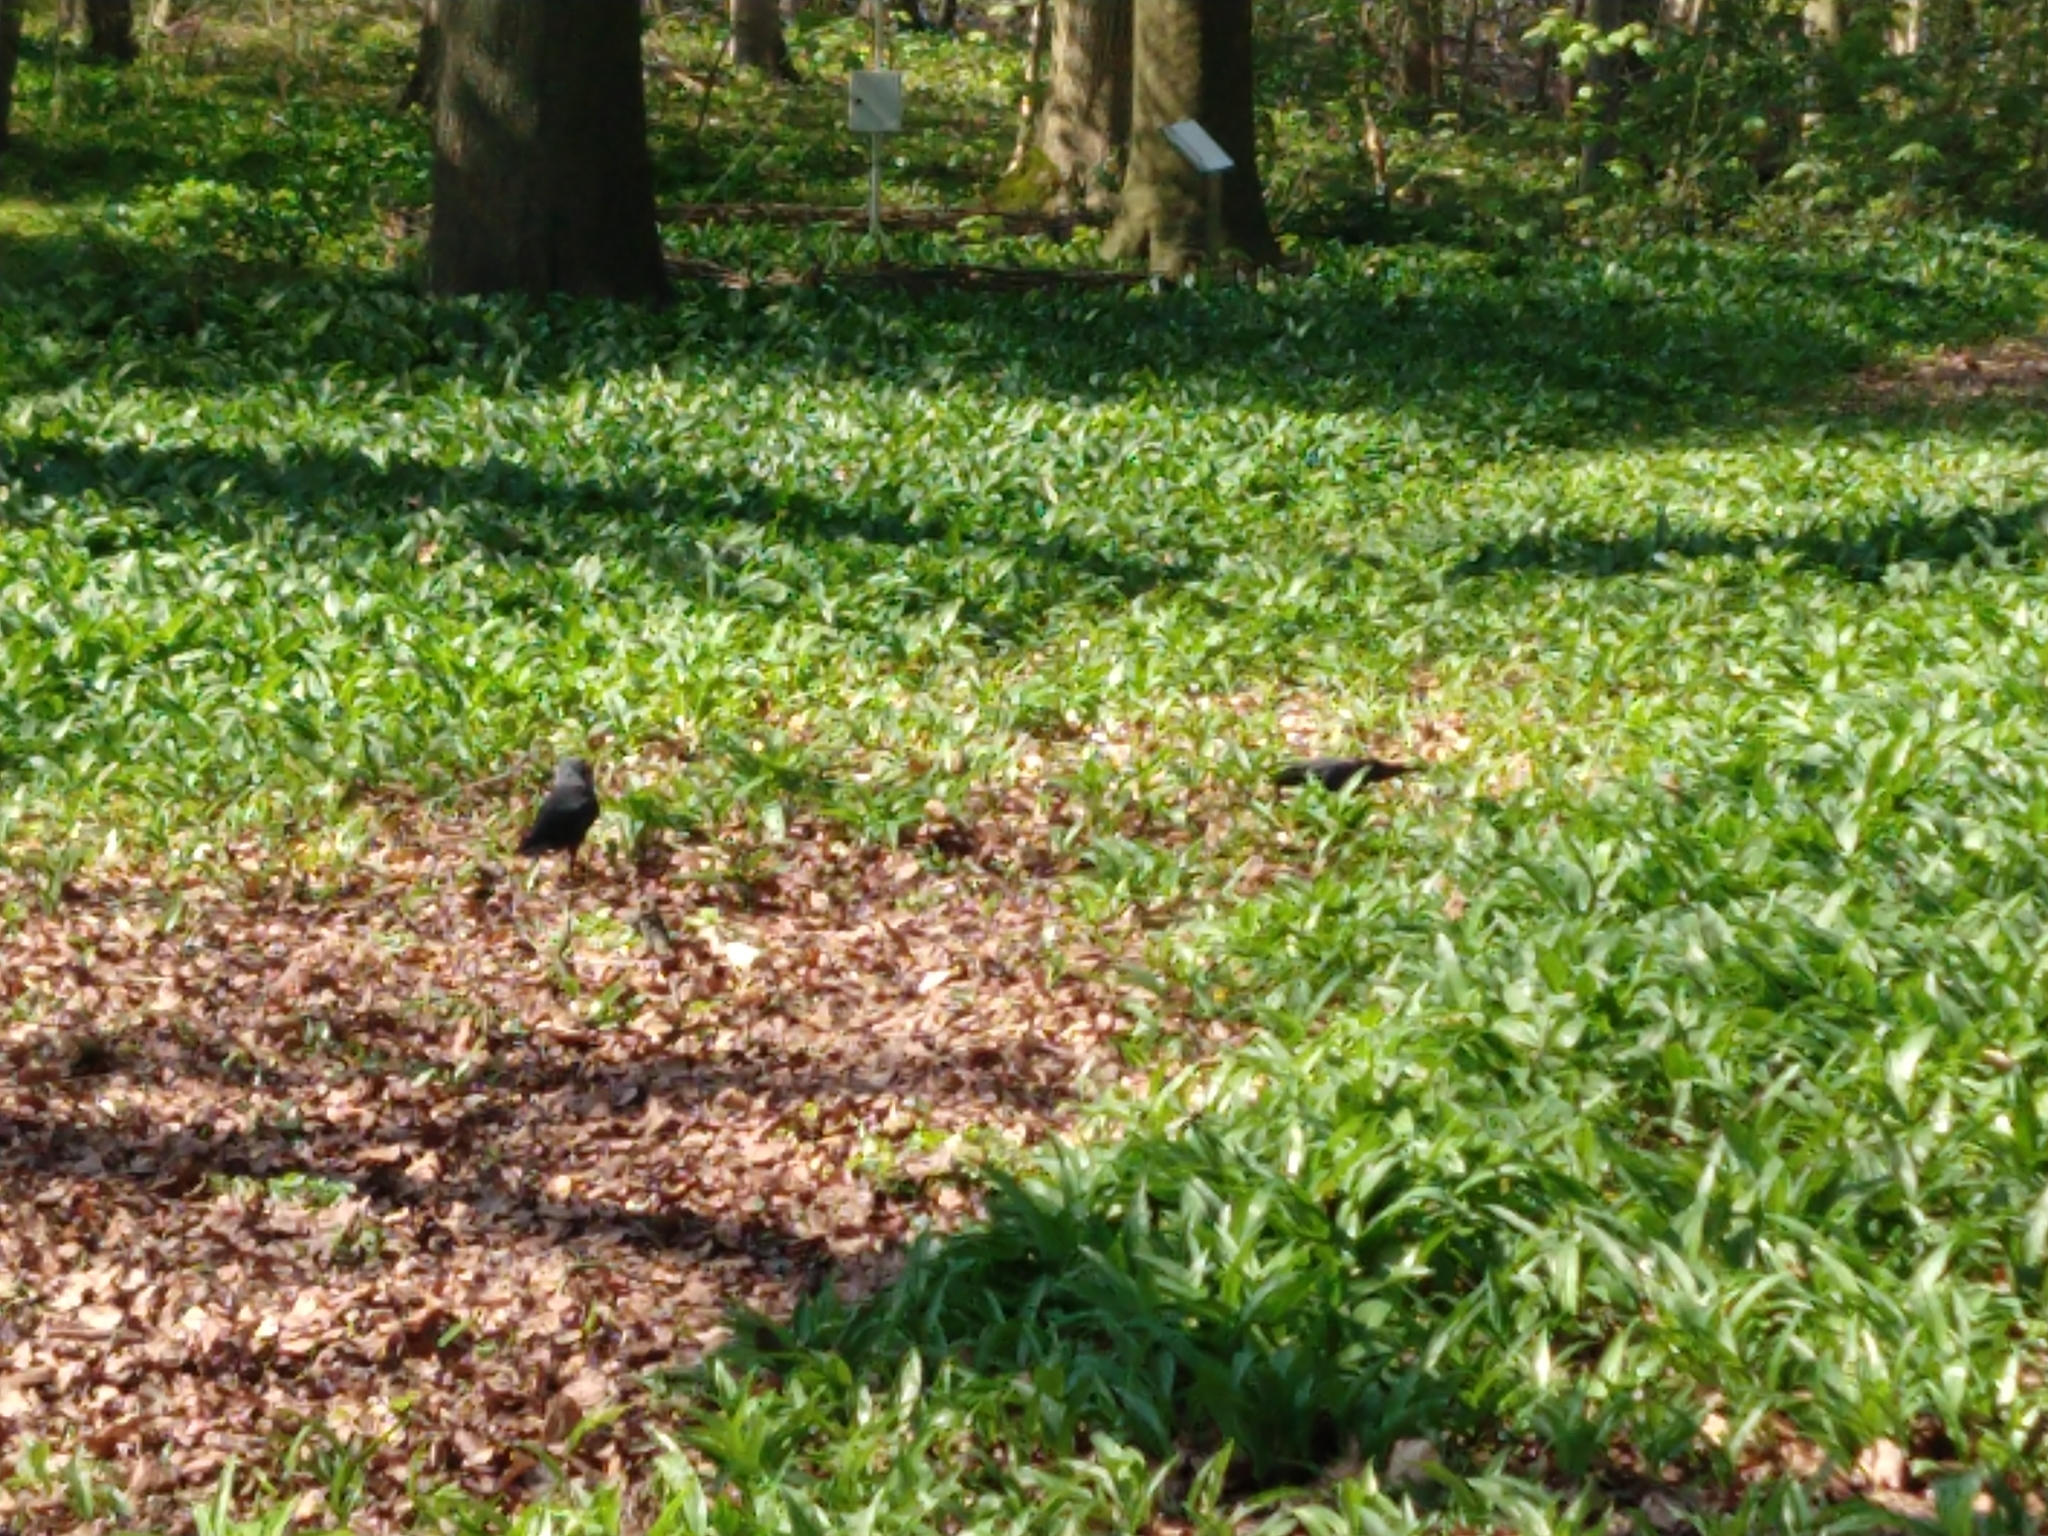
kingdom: Animalia
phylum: Chordata
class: Aves
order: Passeriformes
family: Corvidae
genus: Coloeus
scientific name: Coloeus monedula
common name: Western jackdaw
